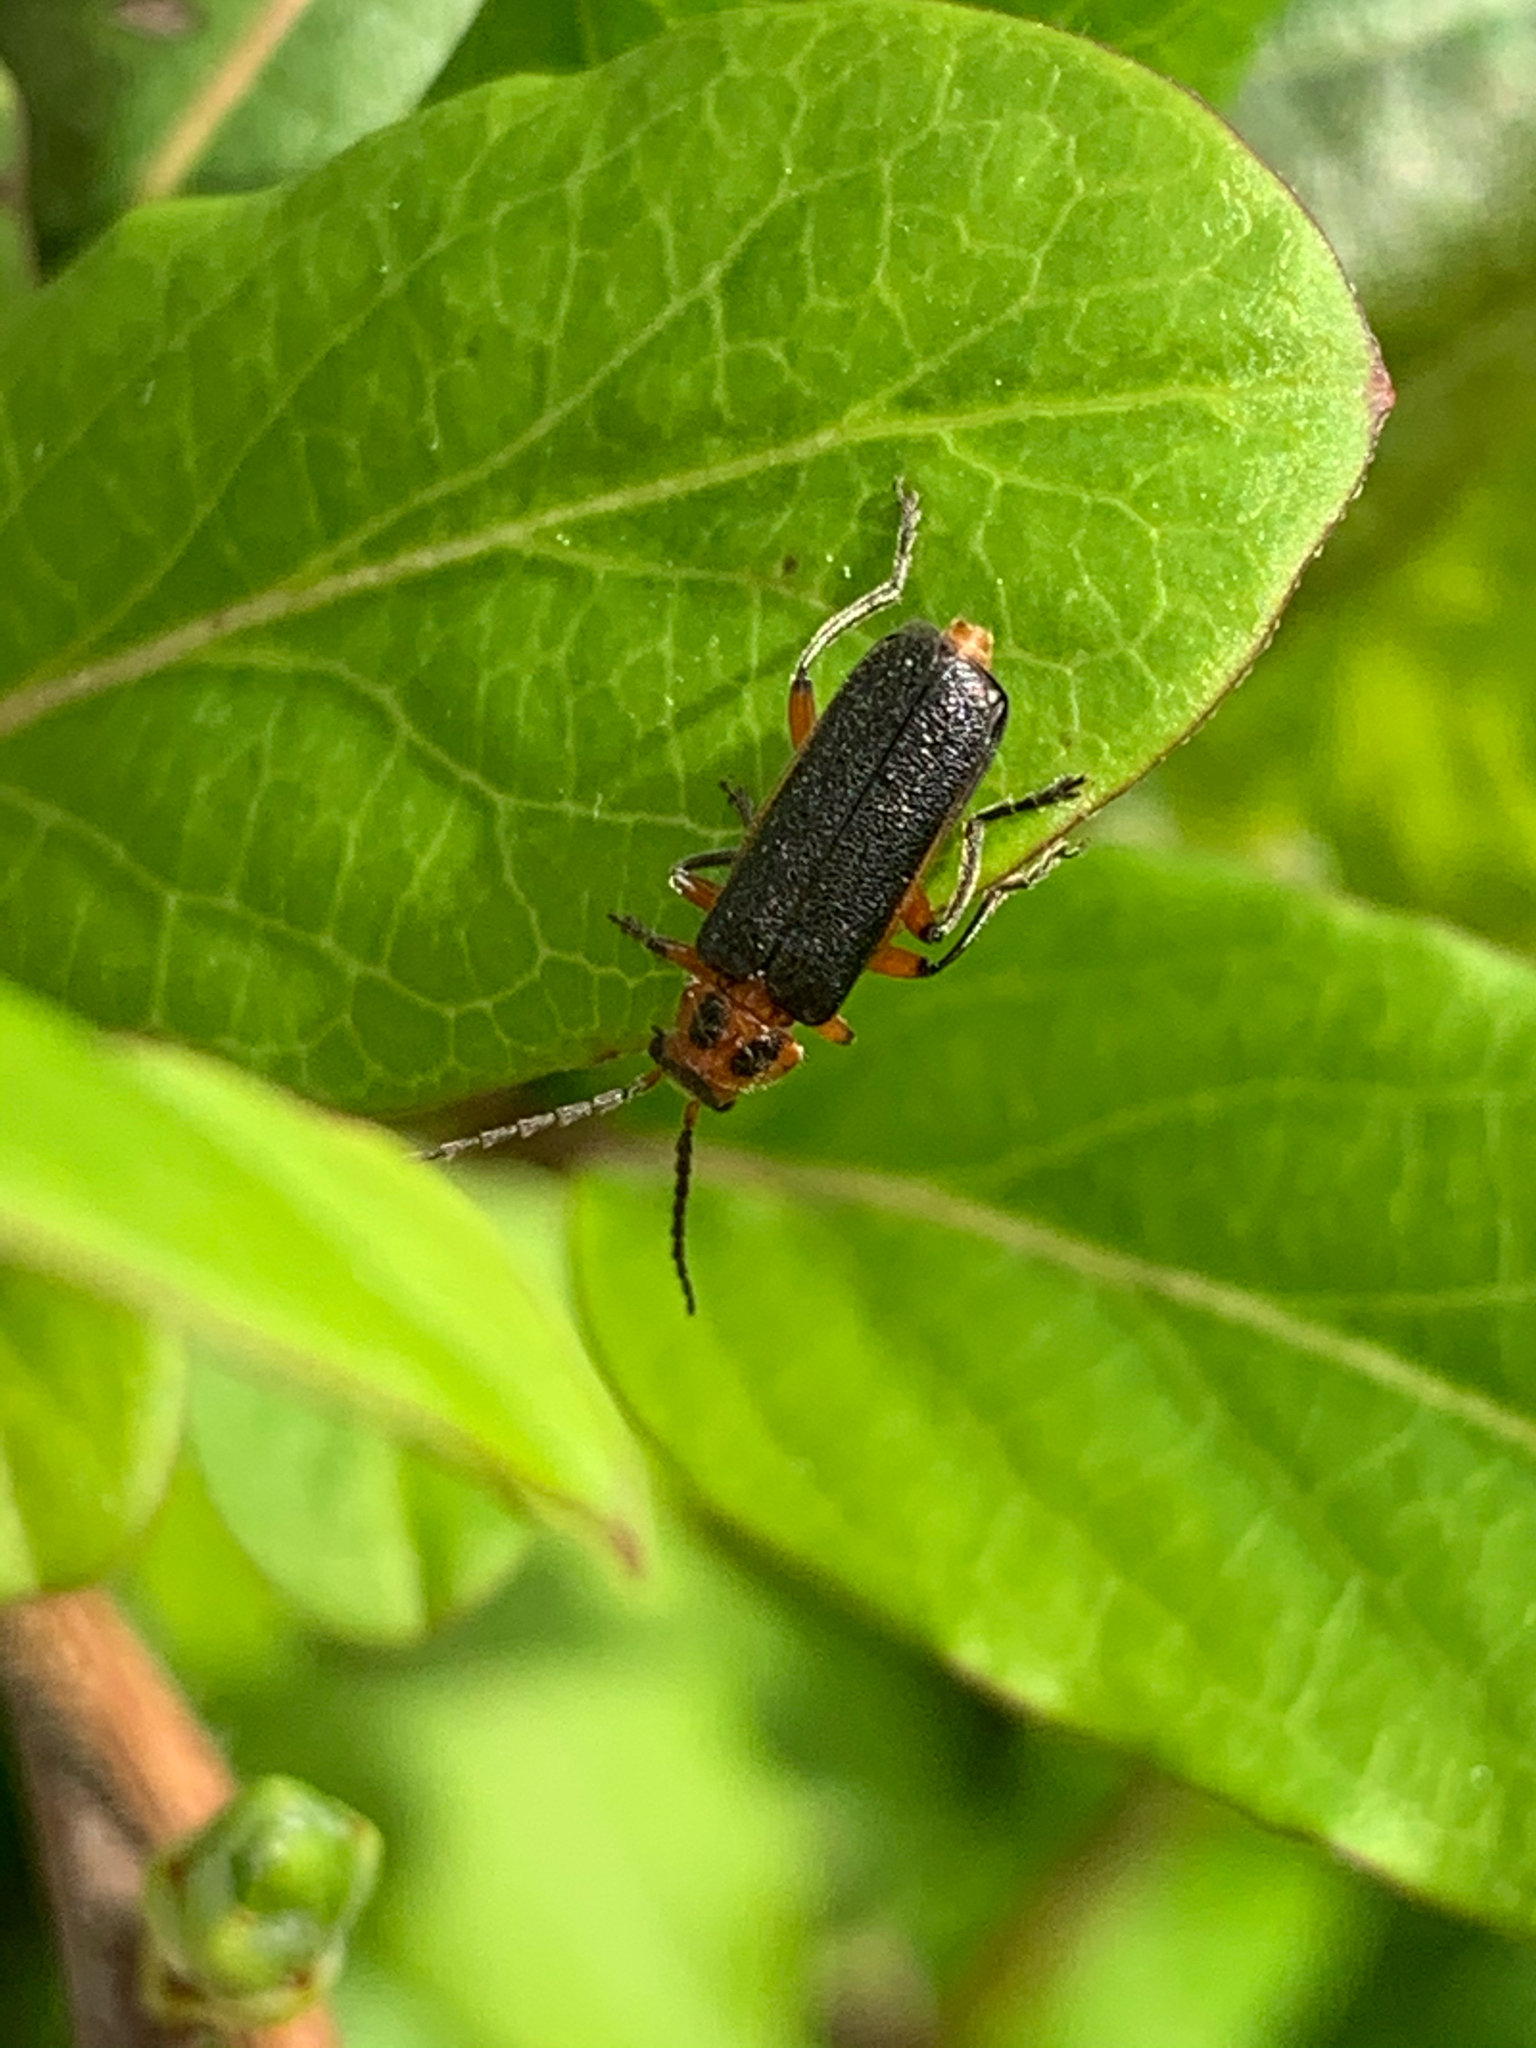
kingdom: Animalia
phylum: Arthropoda
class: Insecta
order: Coleoptera
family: Cantharidae
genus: Atalantycha
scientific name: Atalantycha bilineata
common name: Two-lined leatherwing
